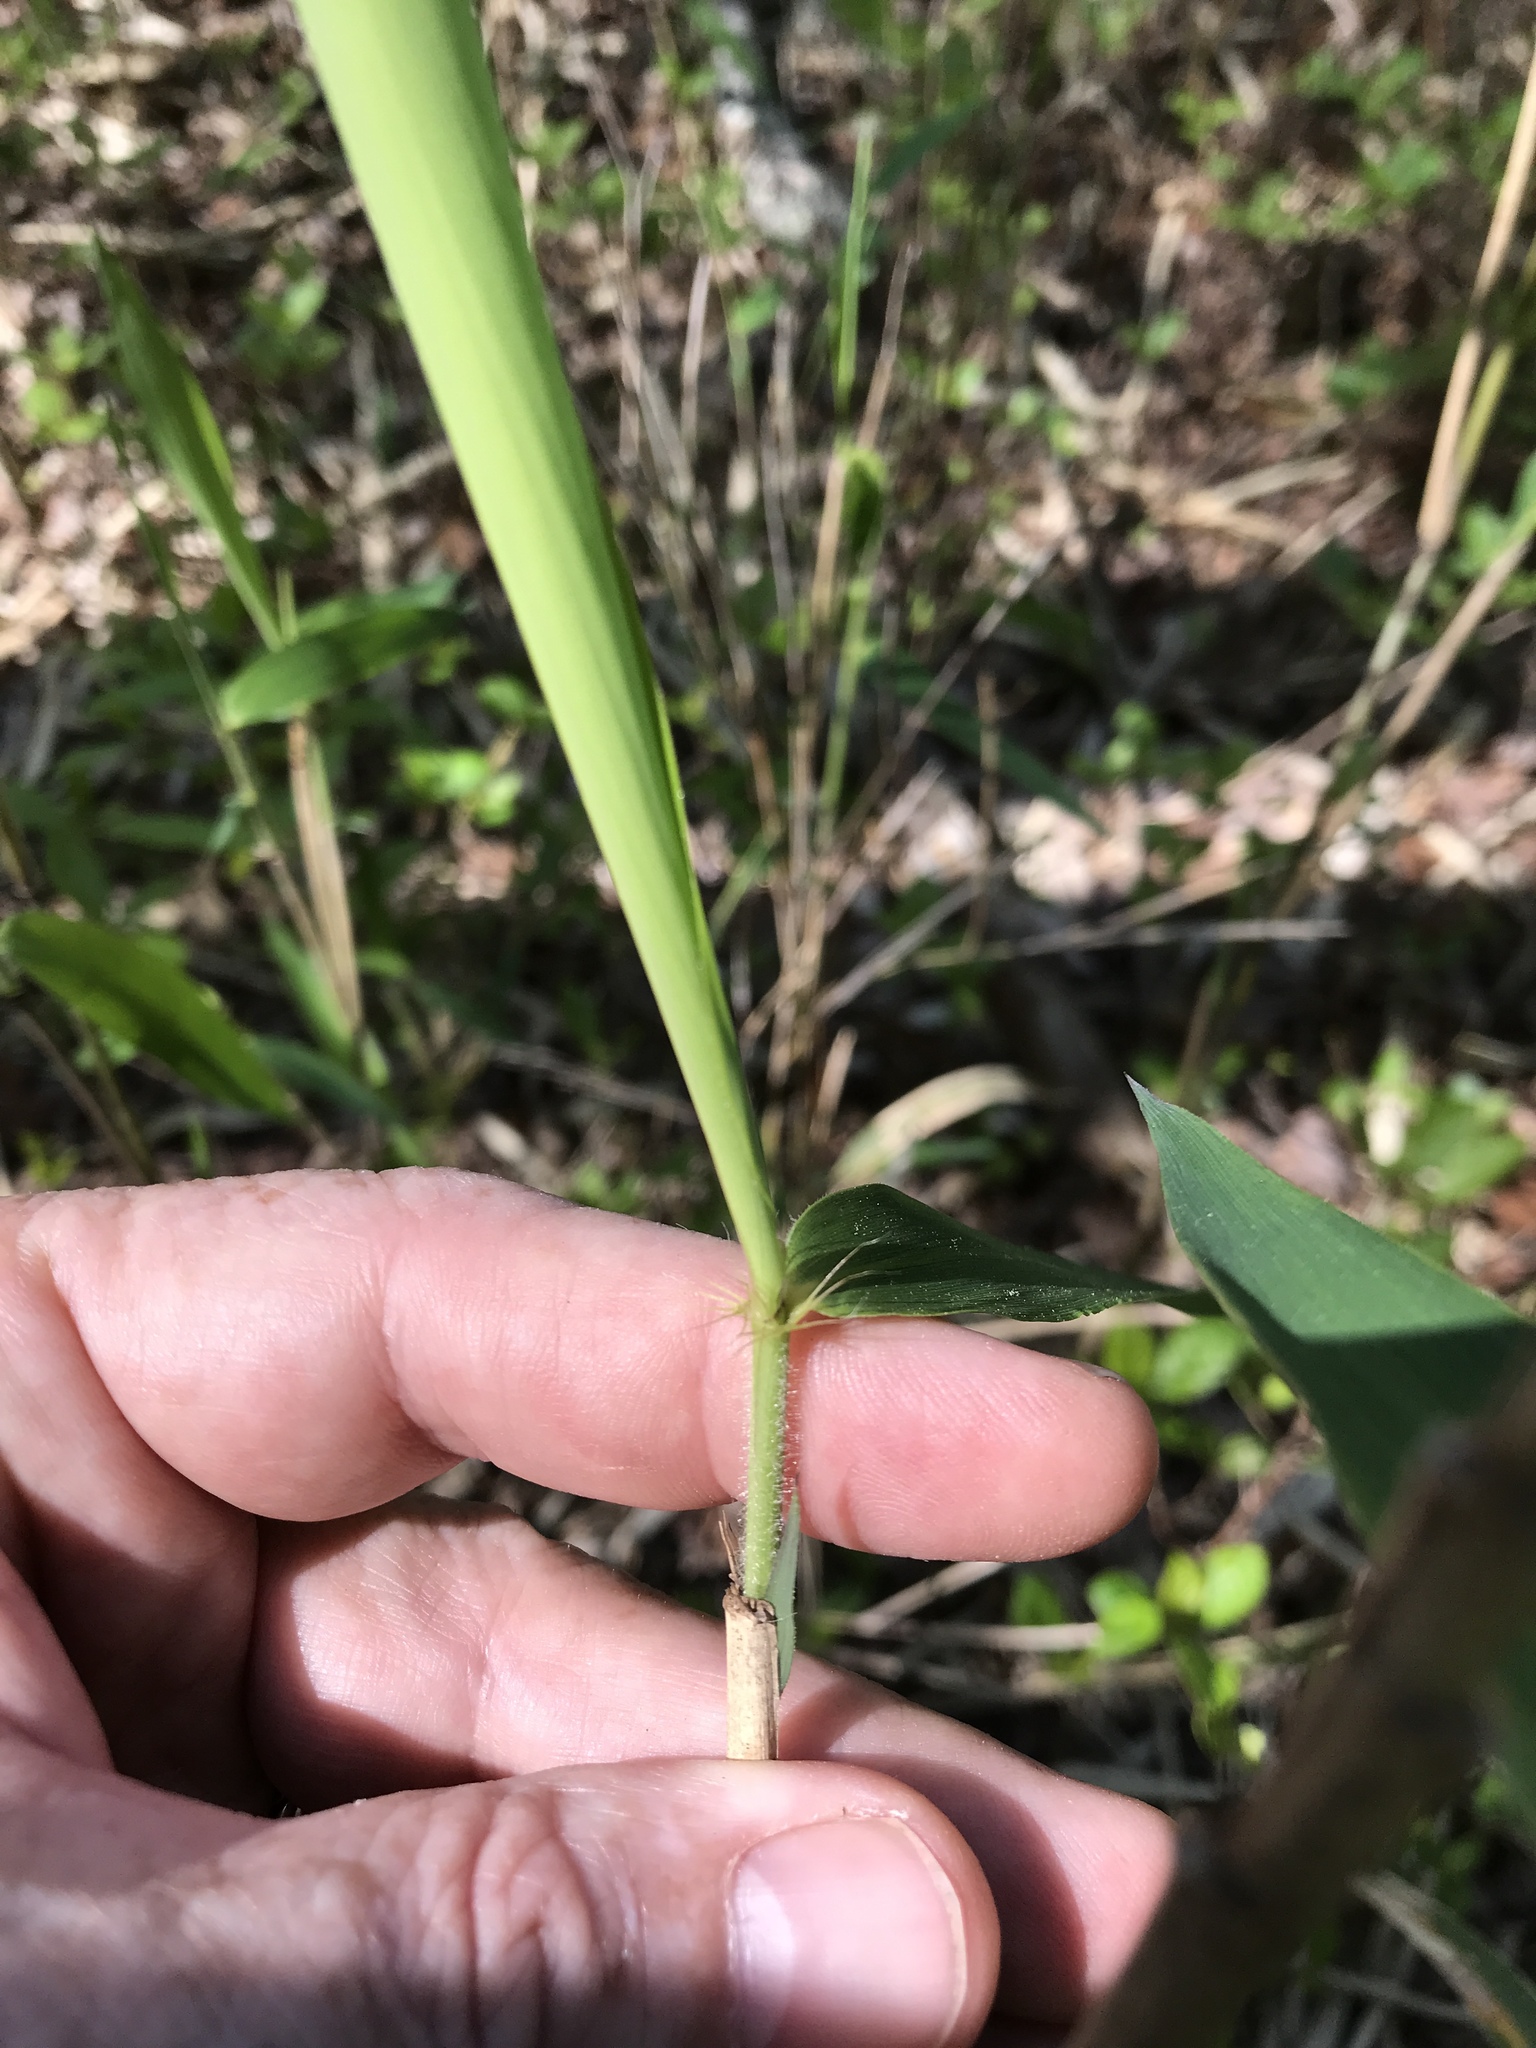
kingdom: Plantae
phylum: Tracheophyta
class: Liliopsida
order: Poales
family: Poaceae
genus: Arundinaria
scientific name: Arundinaria tecta
